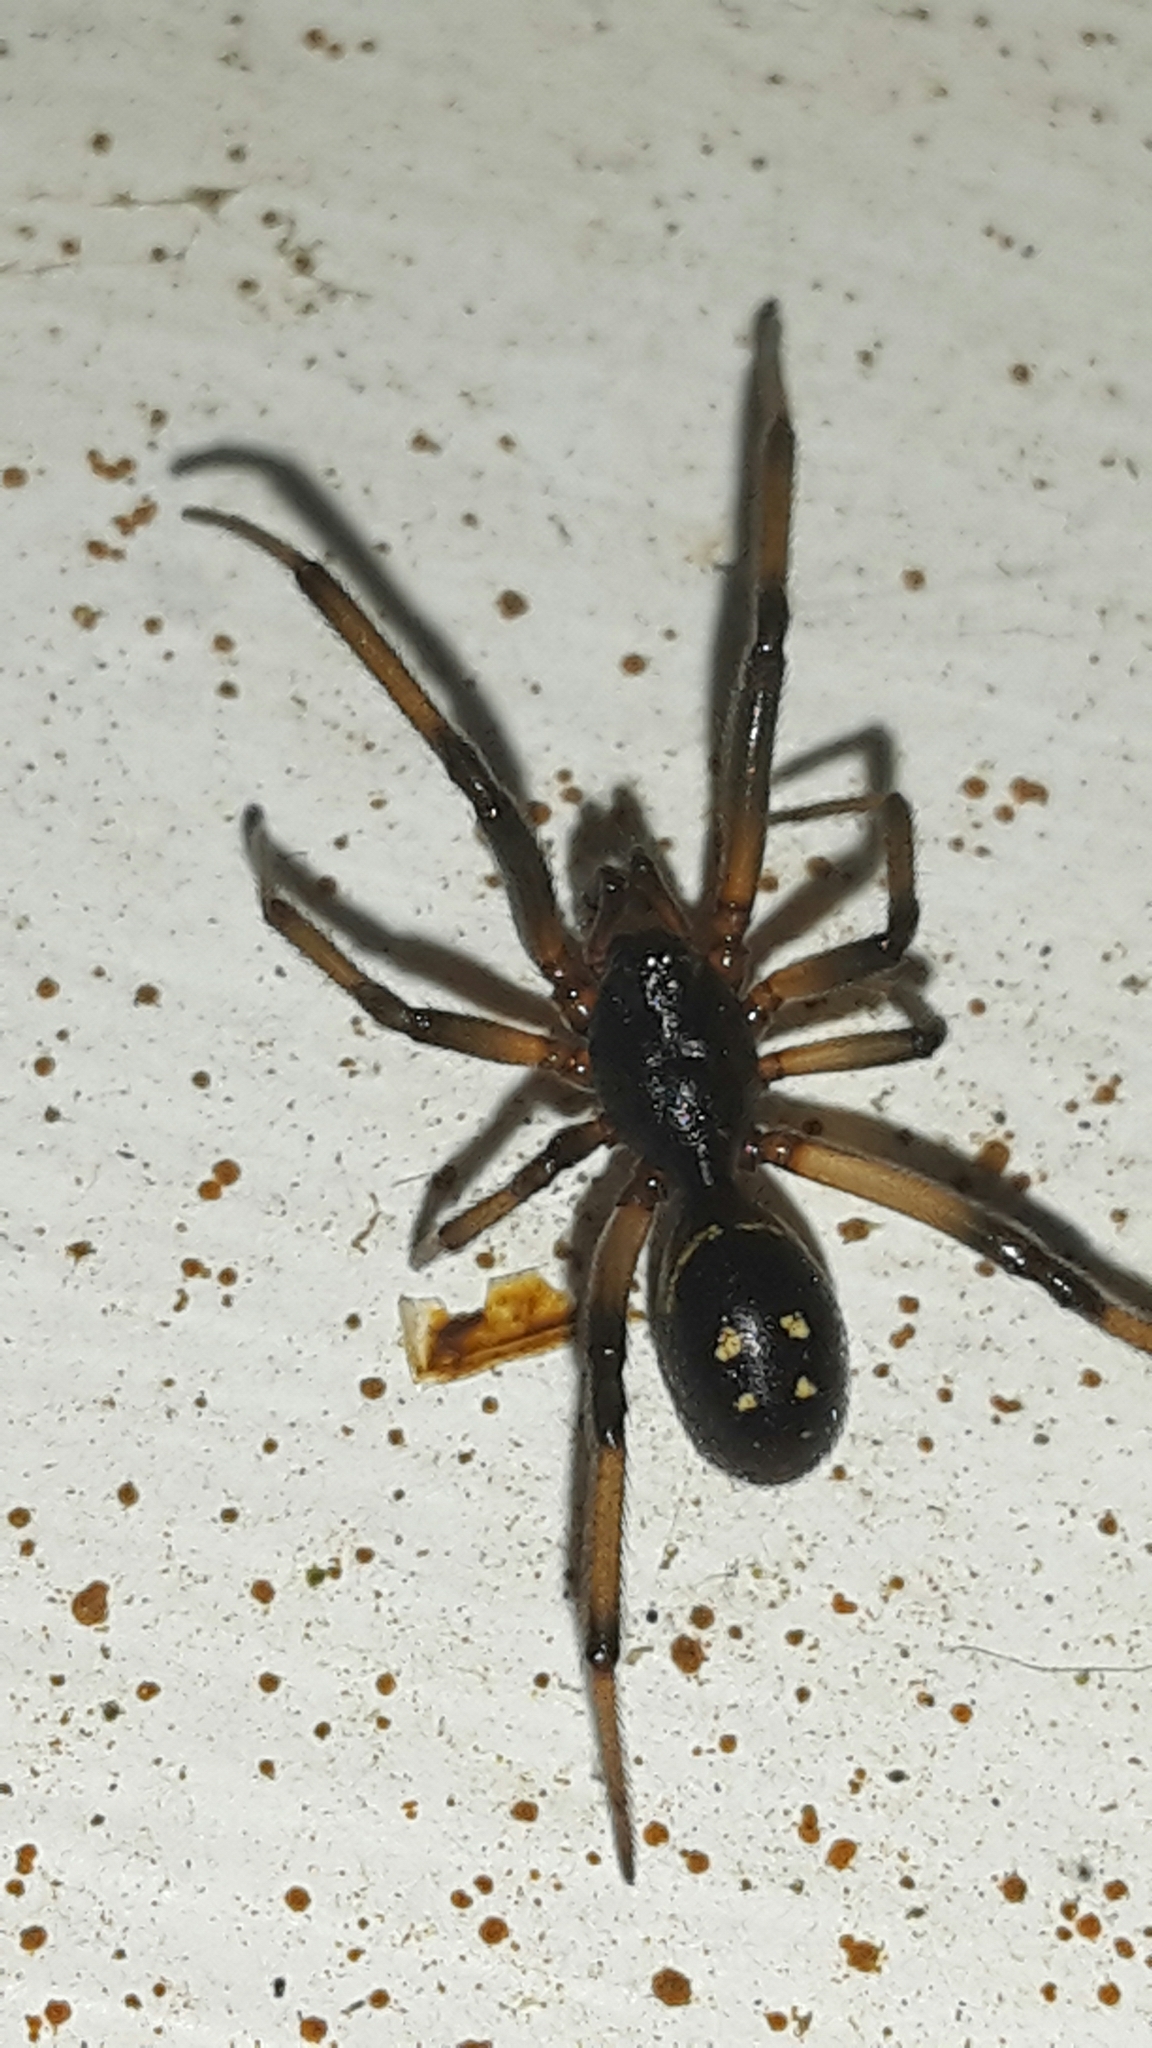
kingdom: Animalia
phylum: Arthropoda
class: Arachnida
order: Araneae
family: Theridiidae
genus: Steatoda
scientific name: Steatoda capensis
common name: Cobweb weaver
